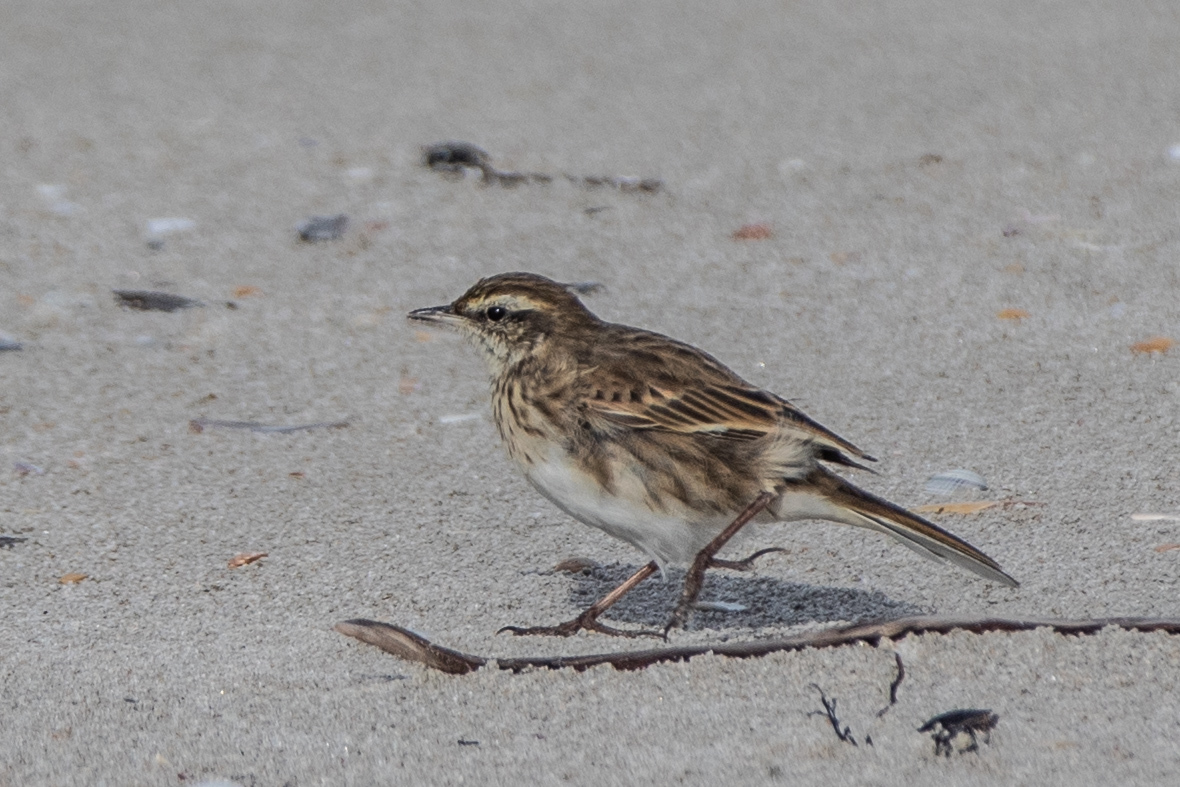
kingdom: Animalia
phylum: Chordata
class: Aves
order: Passeriformes
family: Motacillidae
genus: Anthus
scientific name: Anthus novaeseelandiae
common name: New zealand pipit
